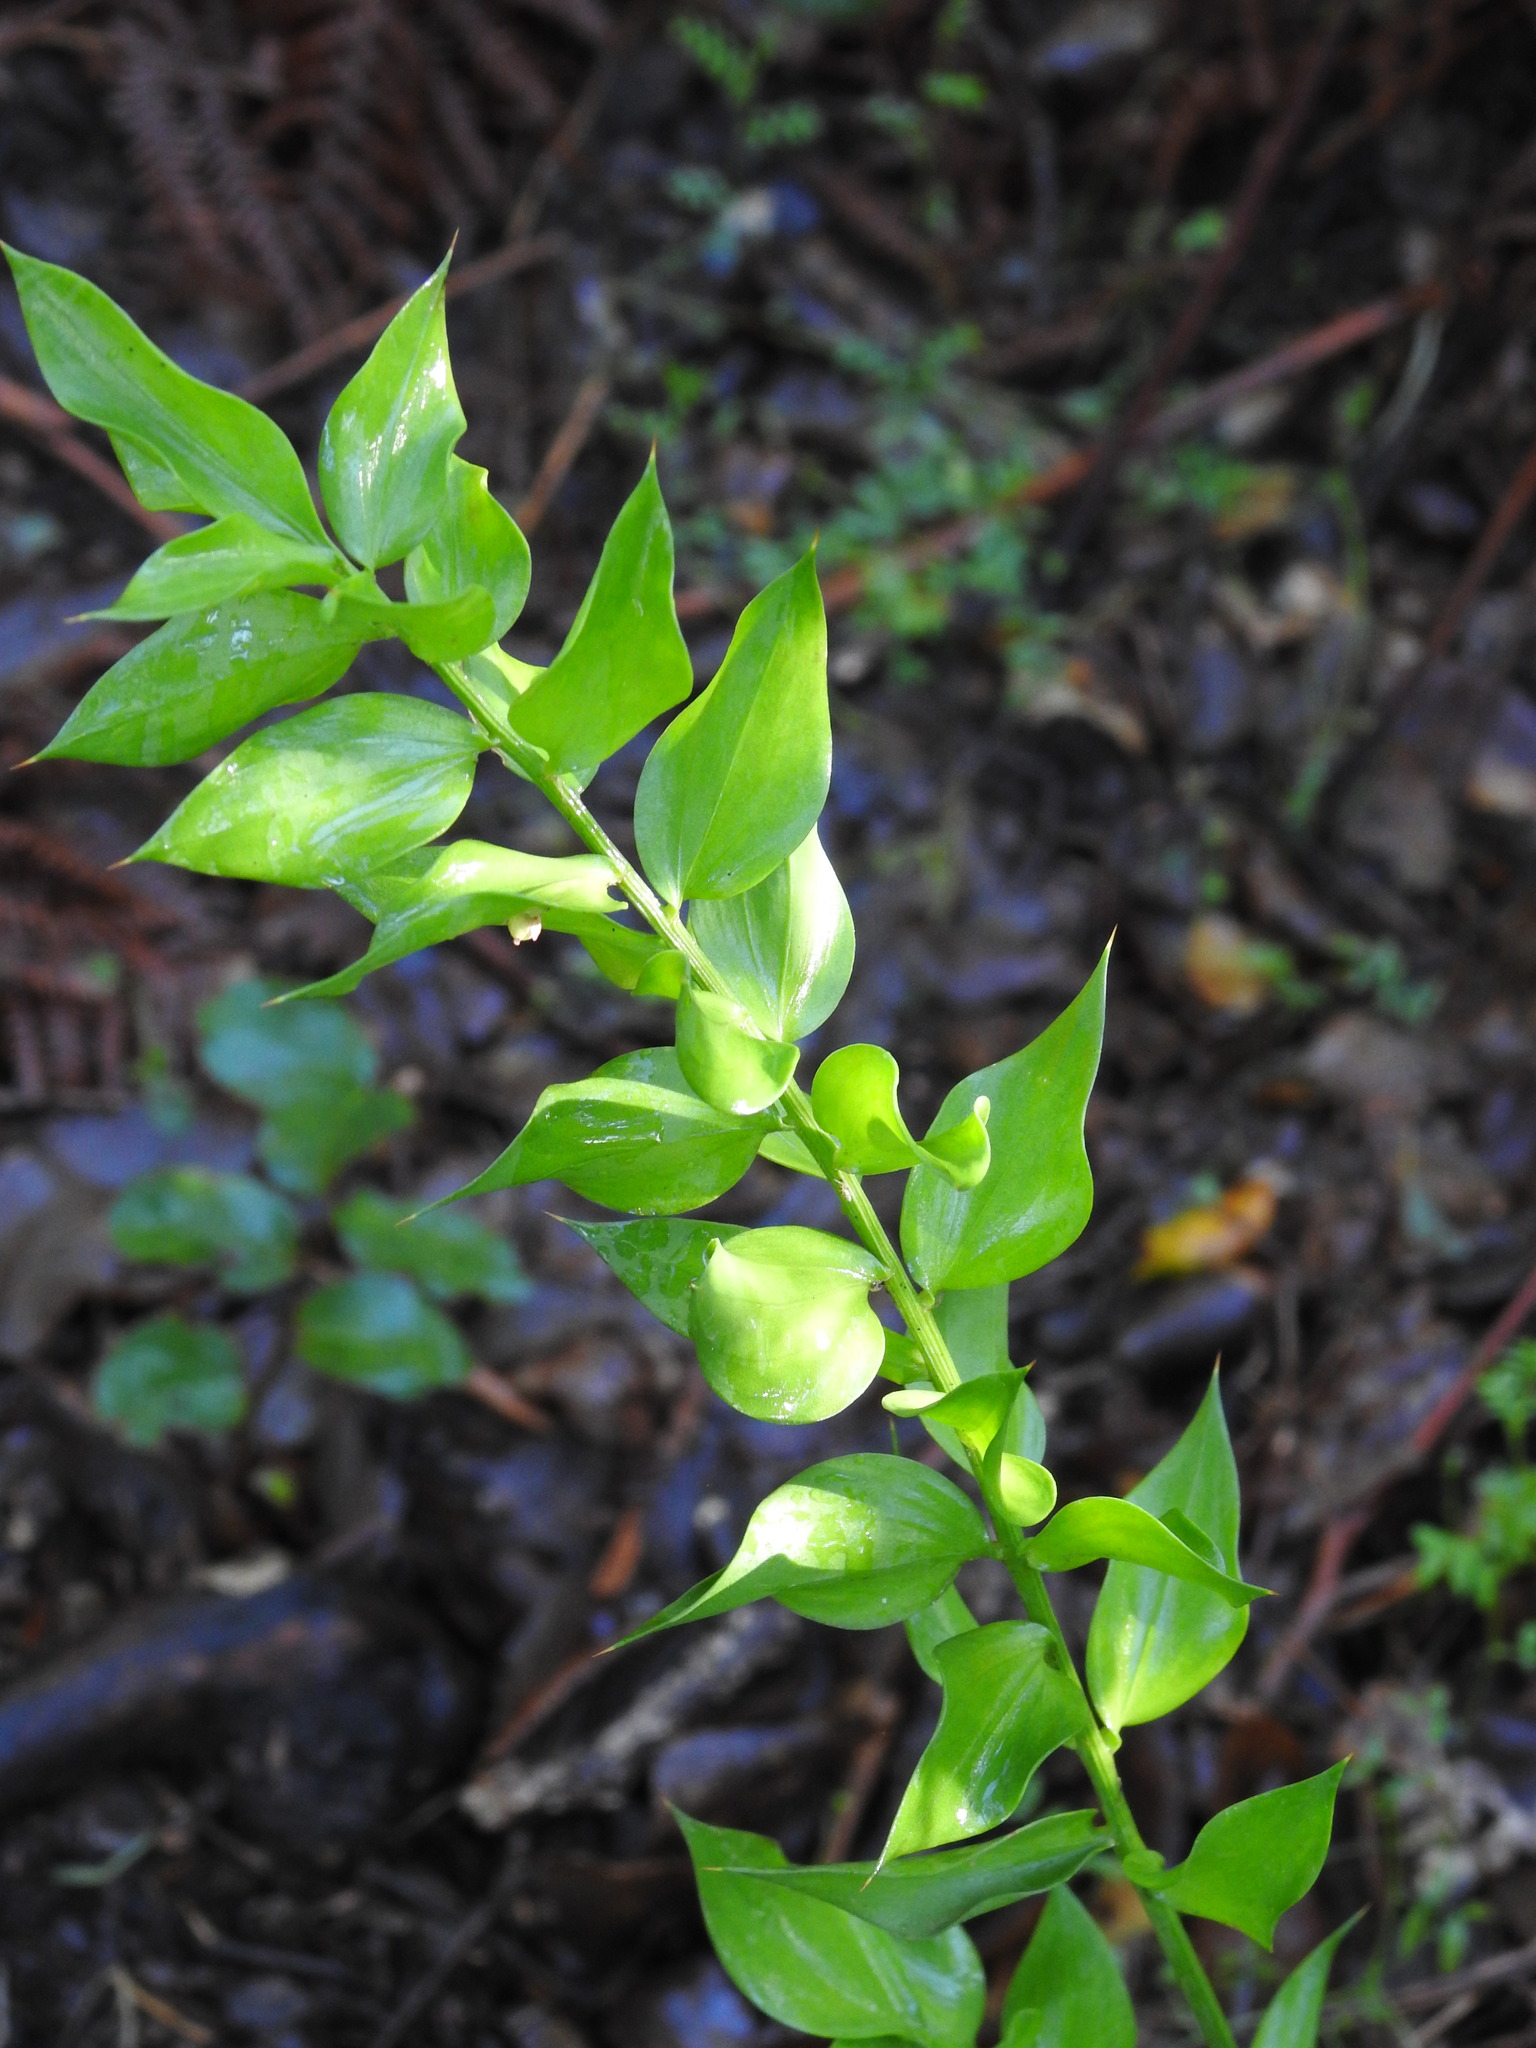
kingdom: Plantae
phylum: Tracheophyta
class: Liliopsida
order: Asparagales
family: Asparagaceae
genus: Ruscus
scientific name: Ruscus aculeatus
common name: Butcher's-broom
